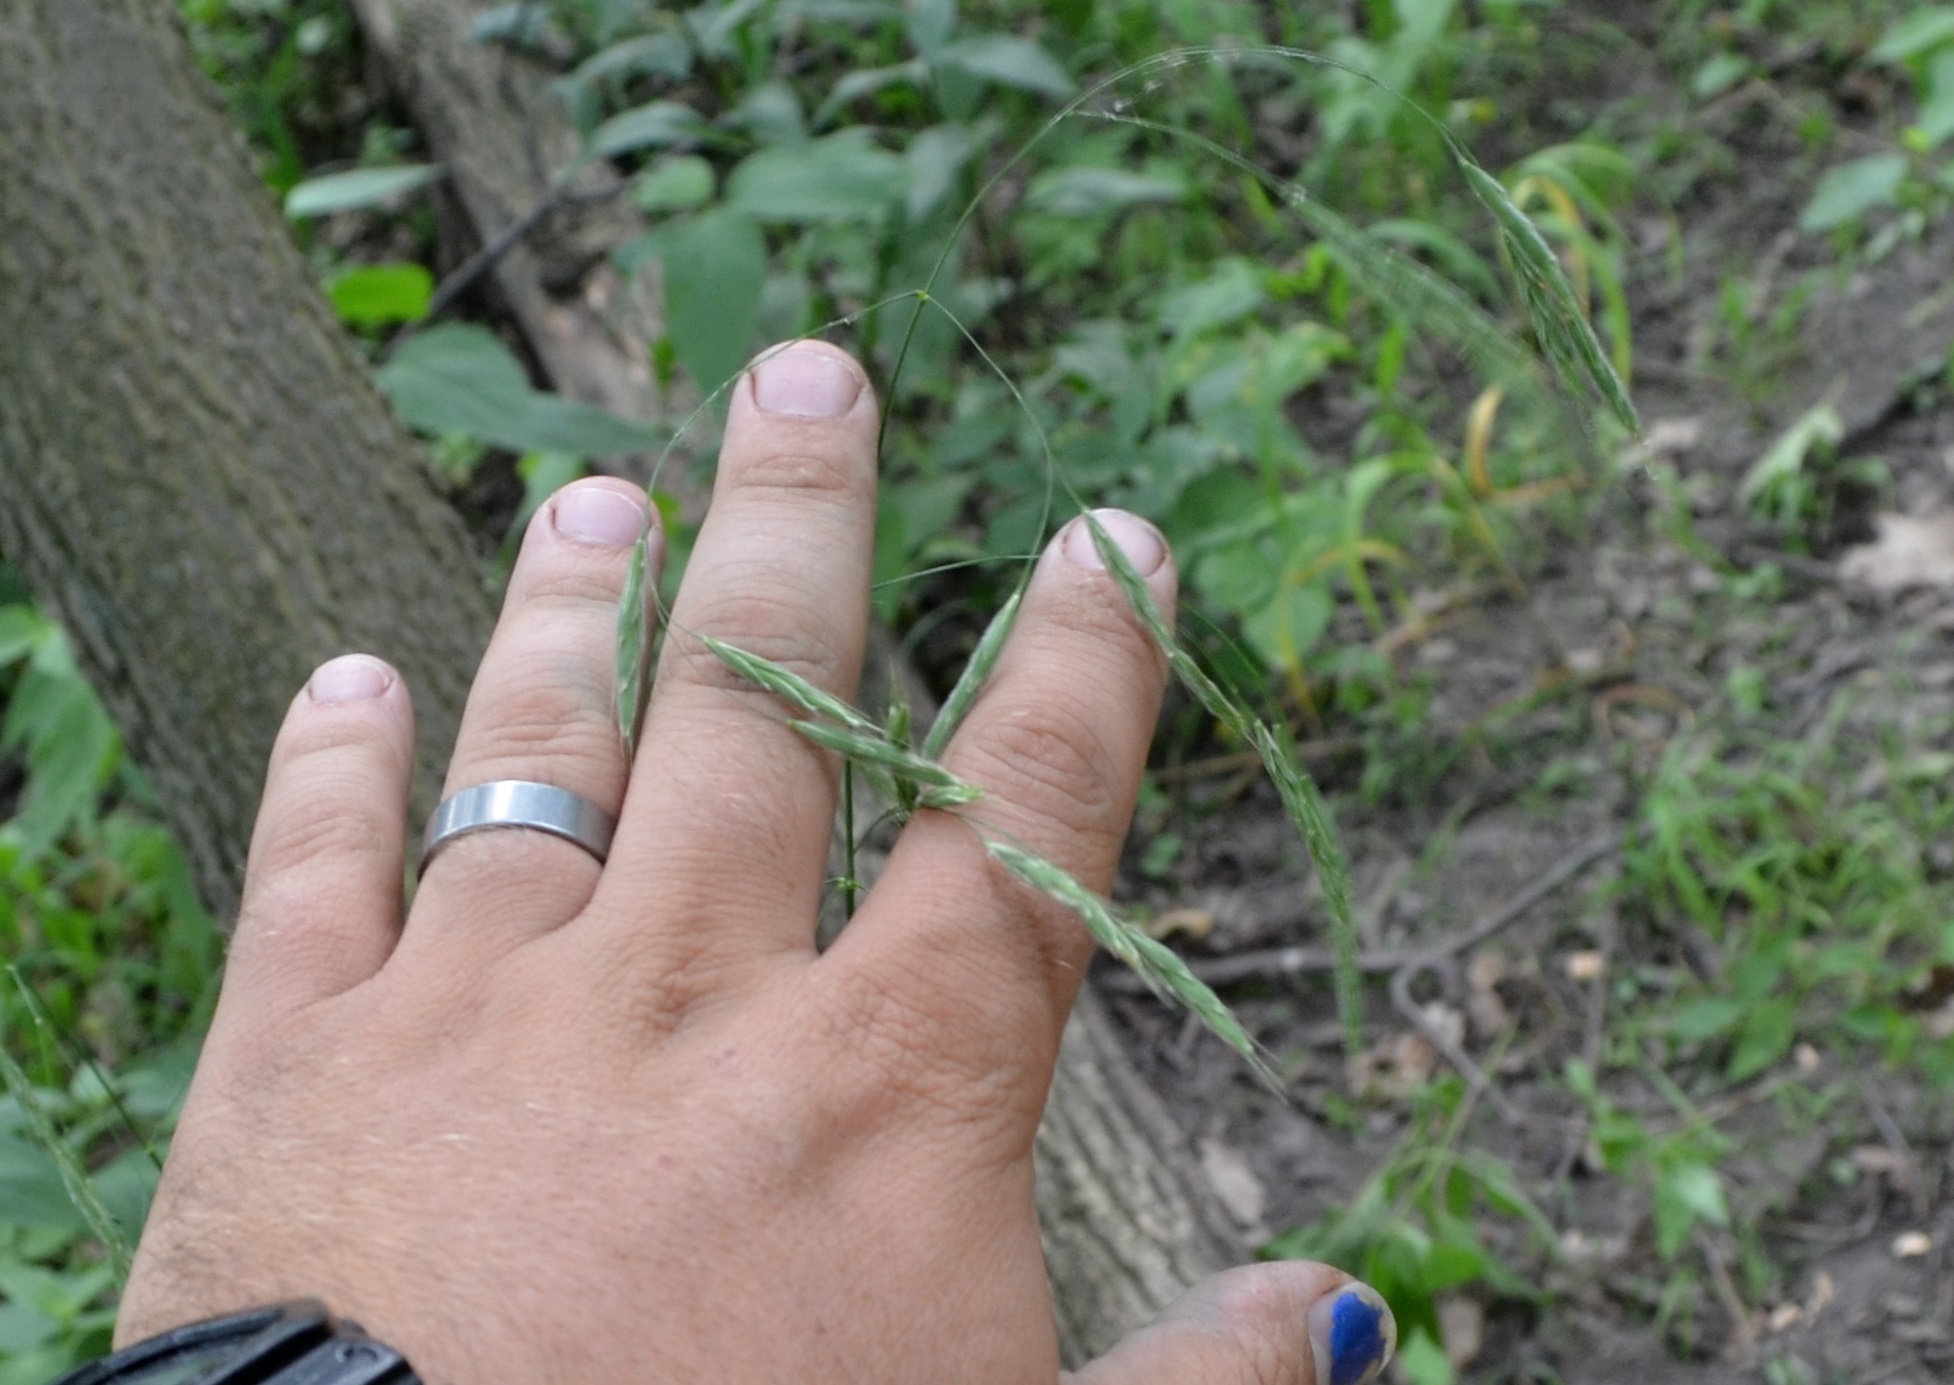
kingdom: Plantae
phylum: Tracheophyta
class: Liliopsida
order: Poales
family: Poaceae
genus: Bromus
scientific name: Bromus pubescens
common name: Hairy wood brome grass
